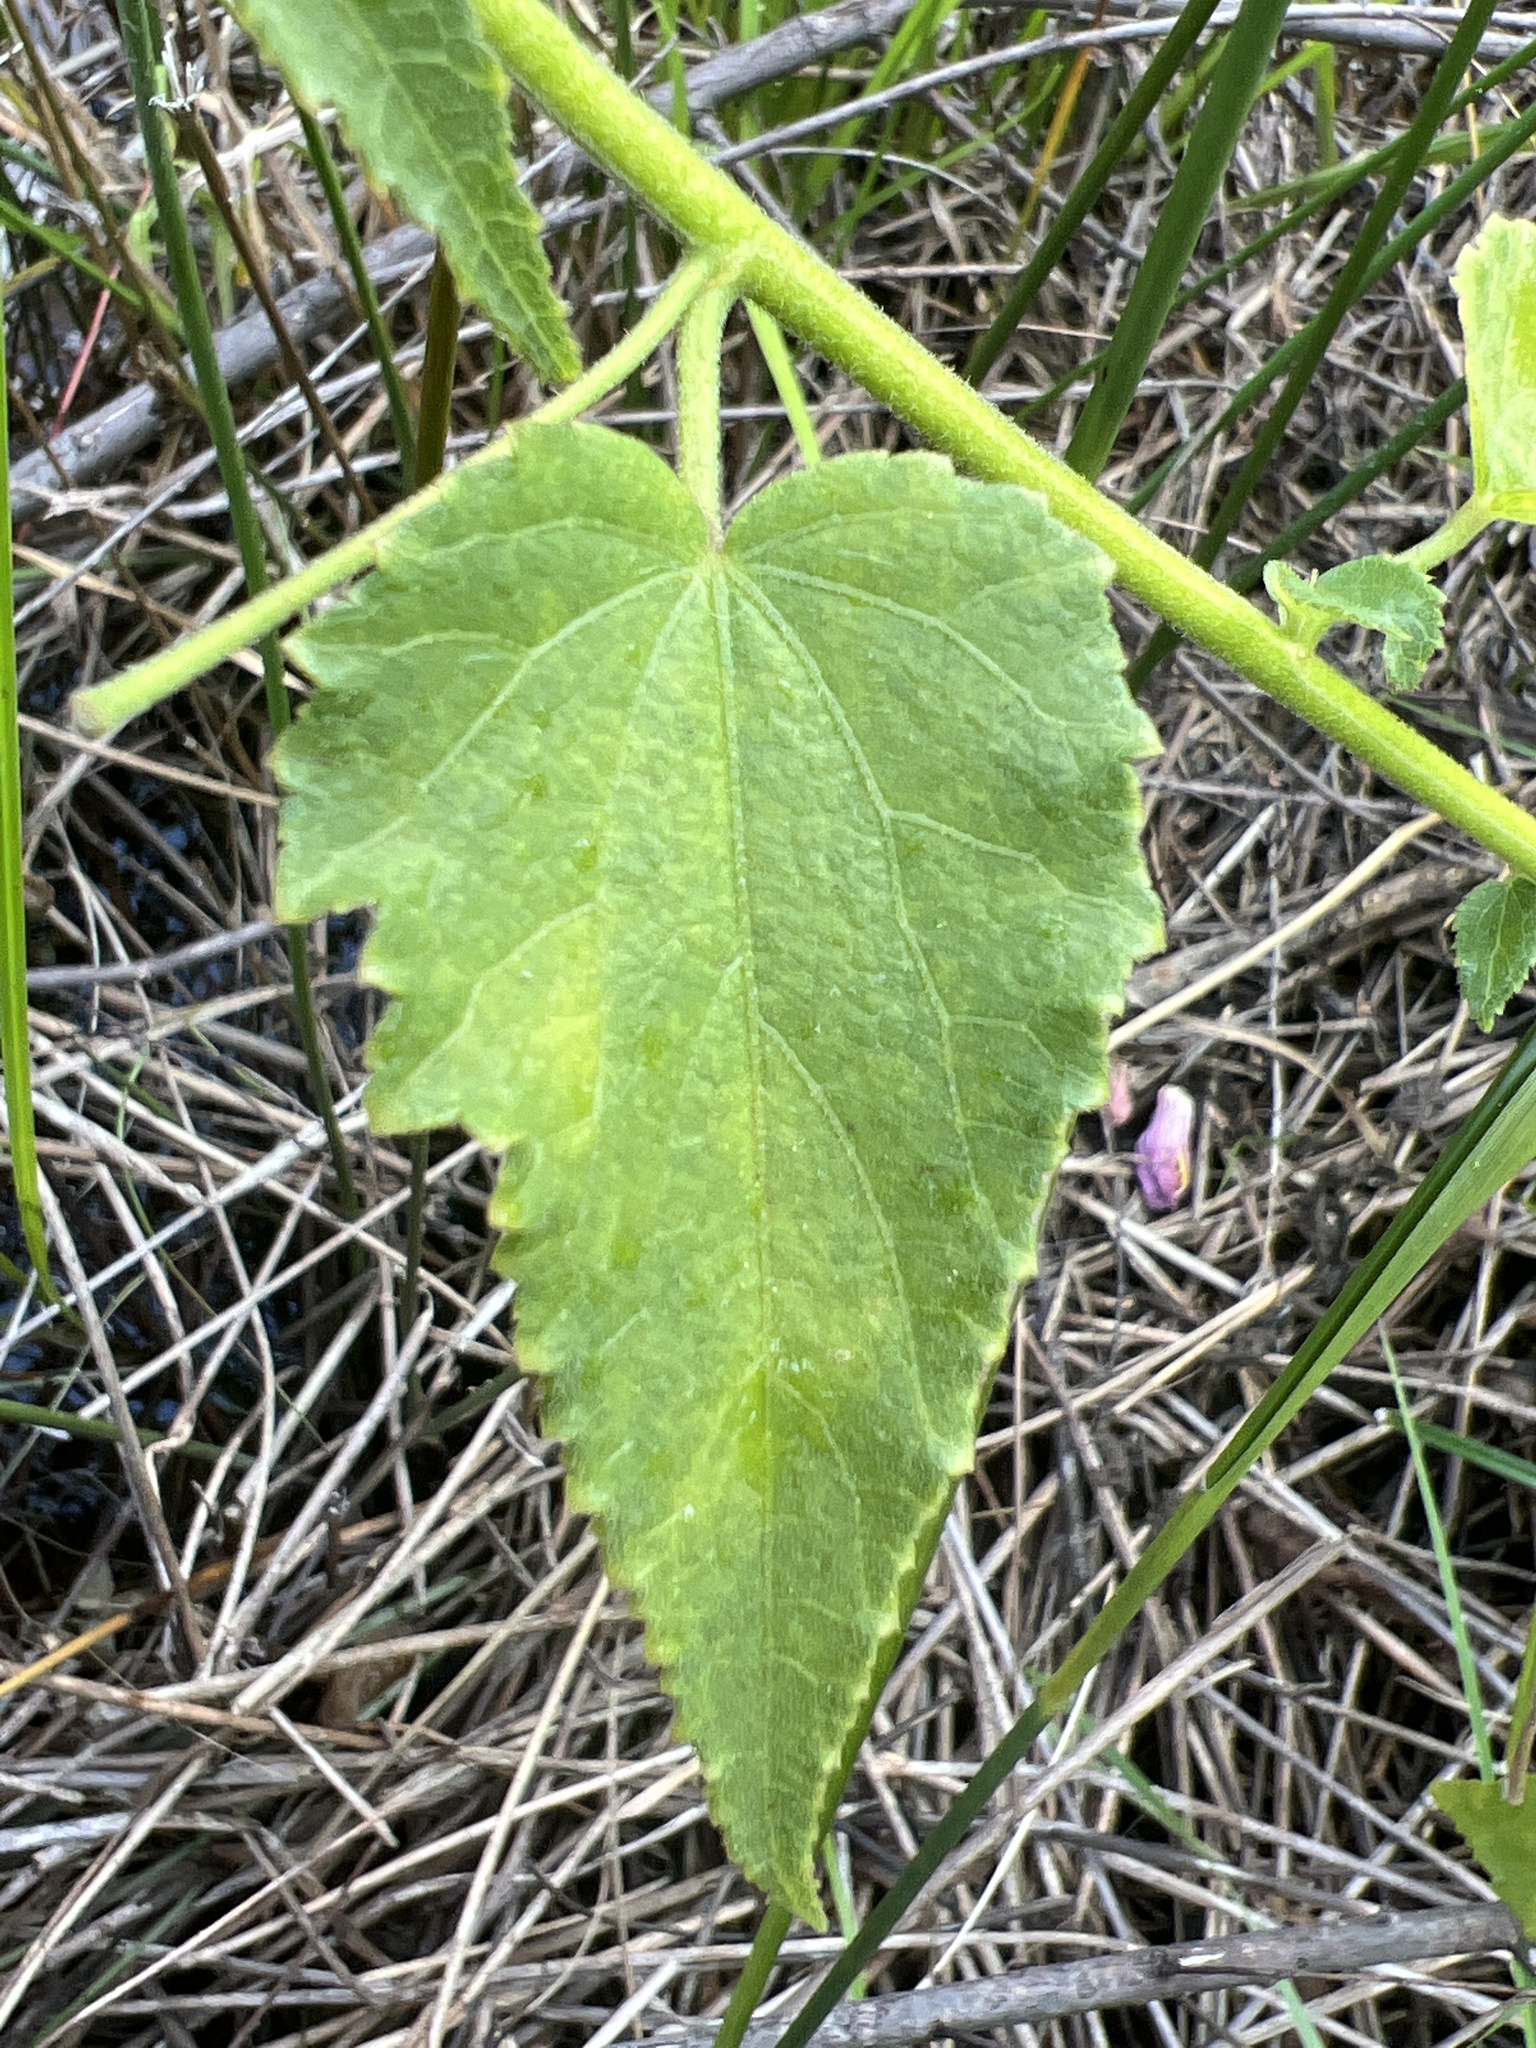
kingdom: Plantae
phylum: Tracheophyta
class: Magnoliopsida
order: Malvales
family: Malvaceae
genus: Kosteletzkya
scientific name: Kosteletzkya pentacarpos
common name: Virginia saltmarsh mallow
